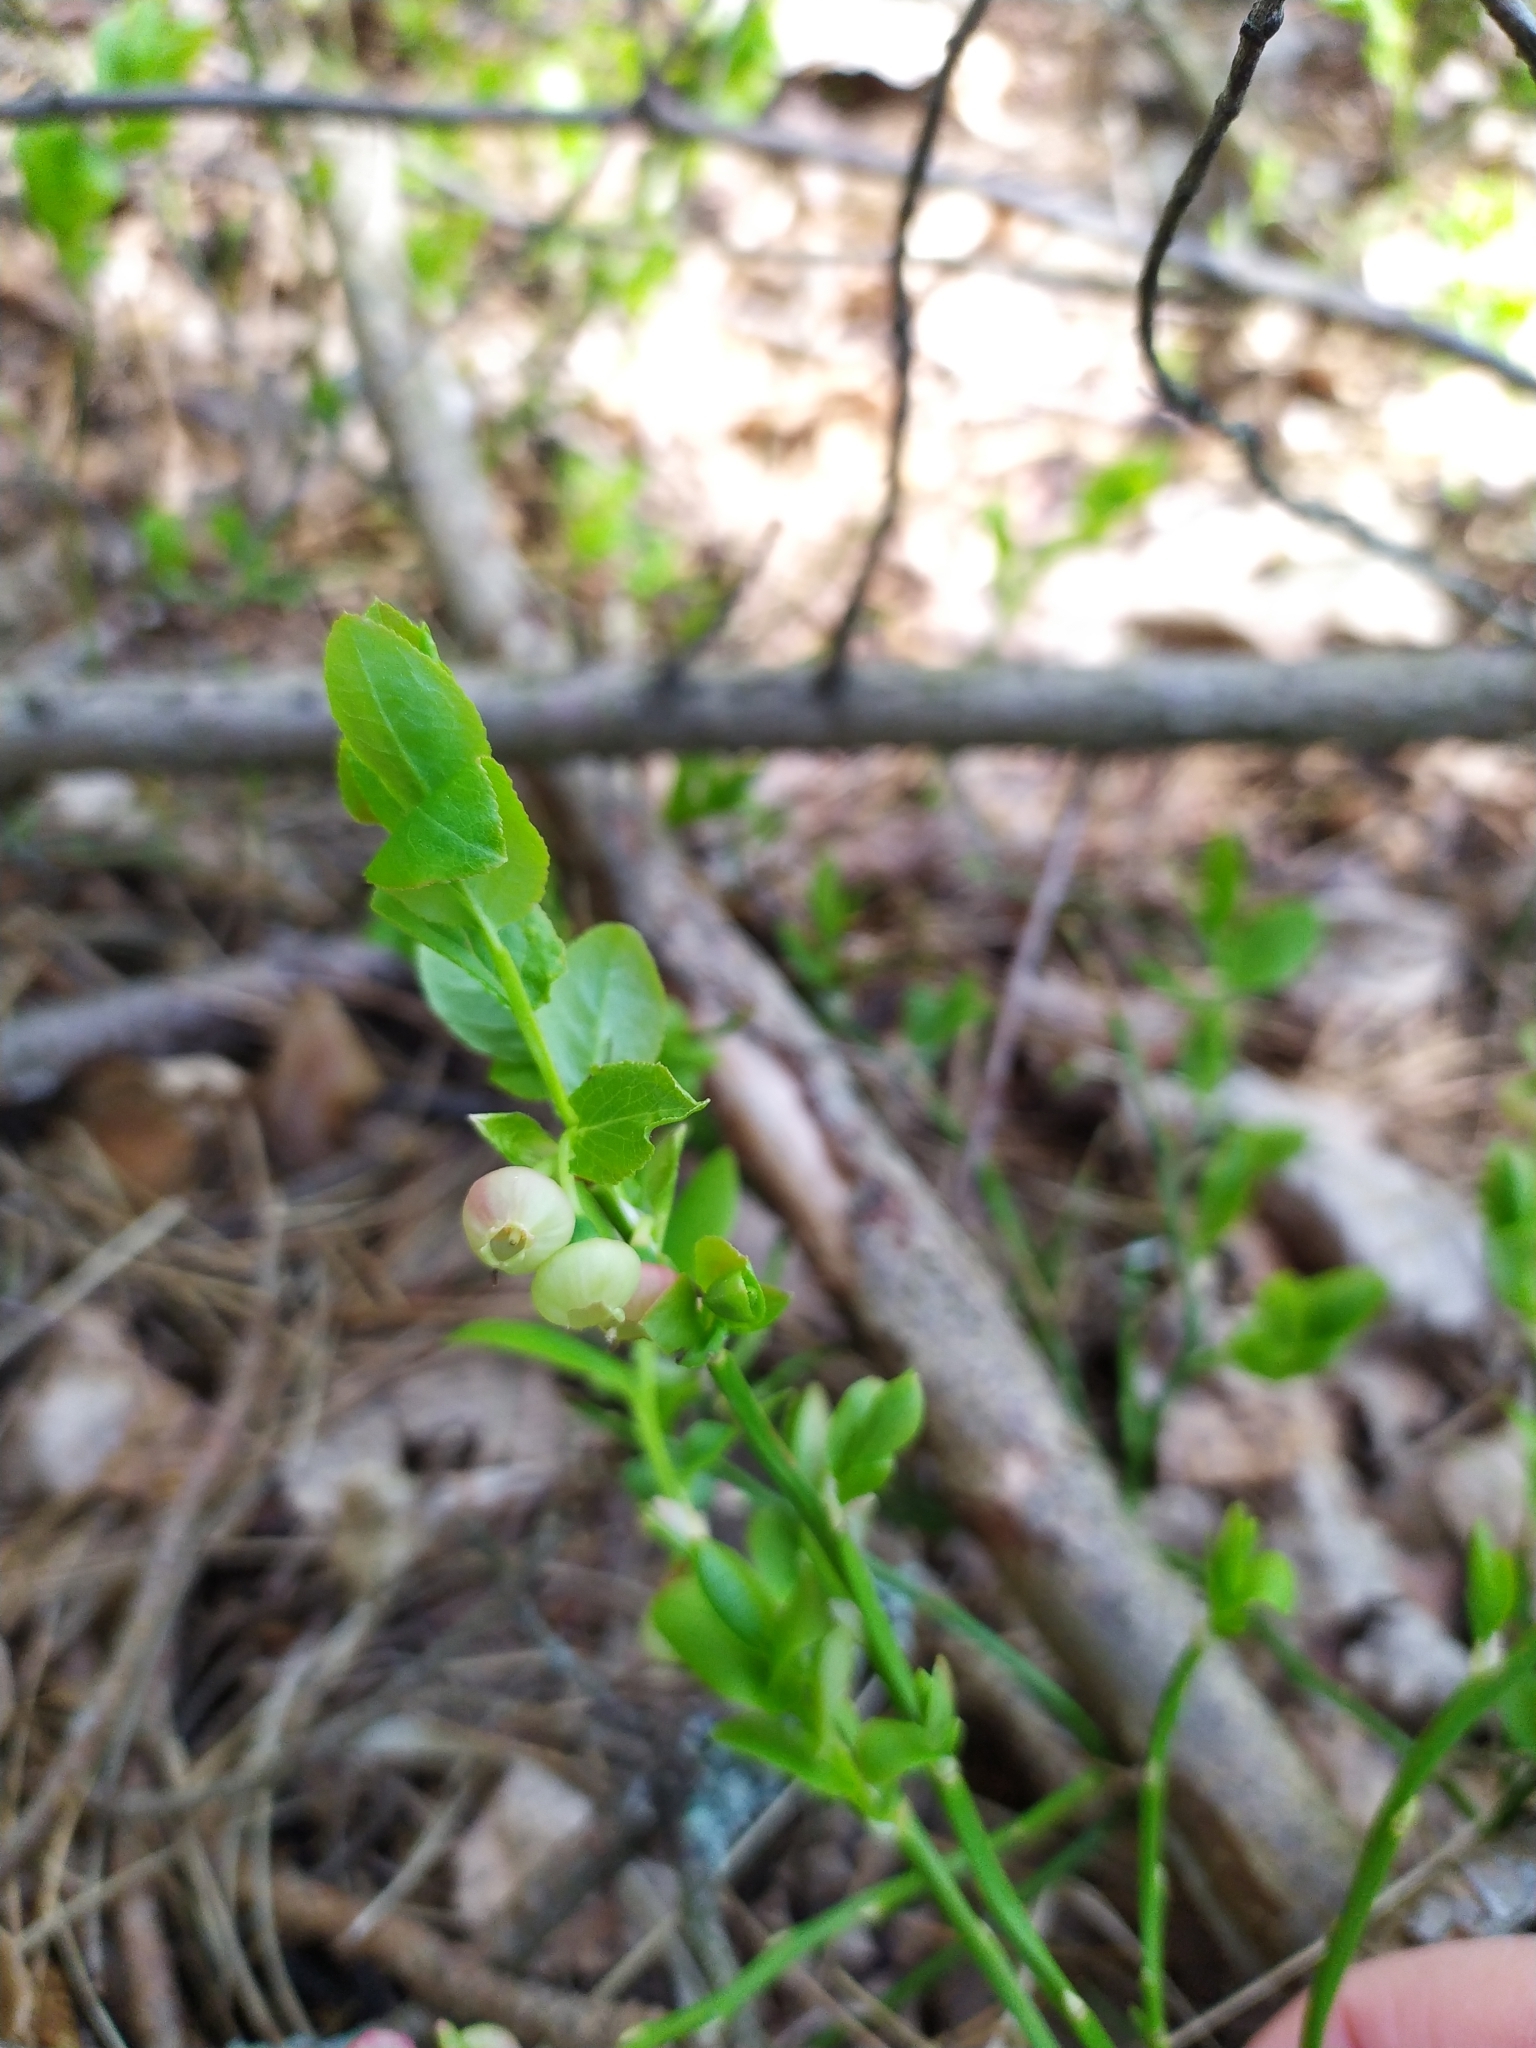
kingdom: Plantae
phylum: Tracheophyta
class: Magnoliopsida
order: Ericales
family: Ericaceae
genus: Vaccinium
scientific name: Vaccinium myrtillus
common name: Bilberry
